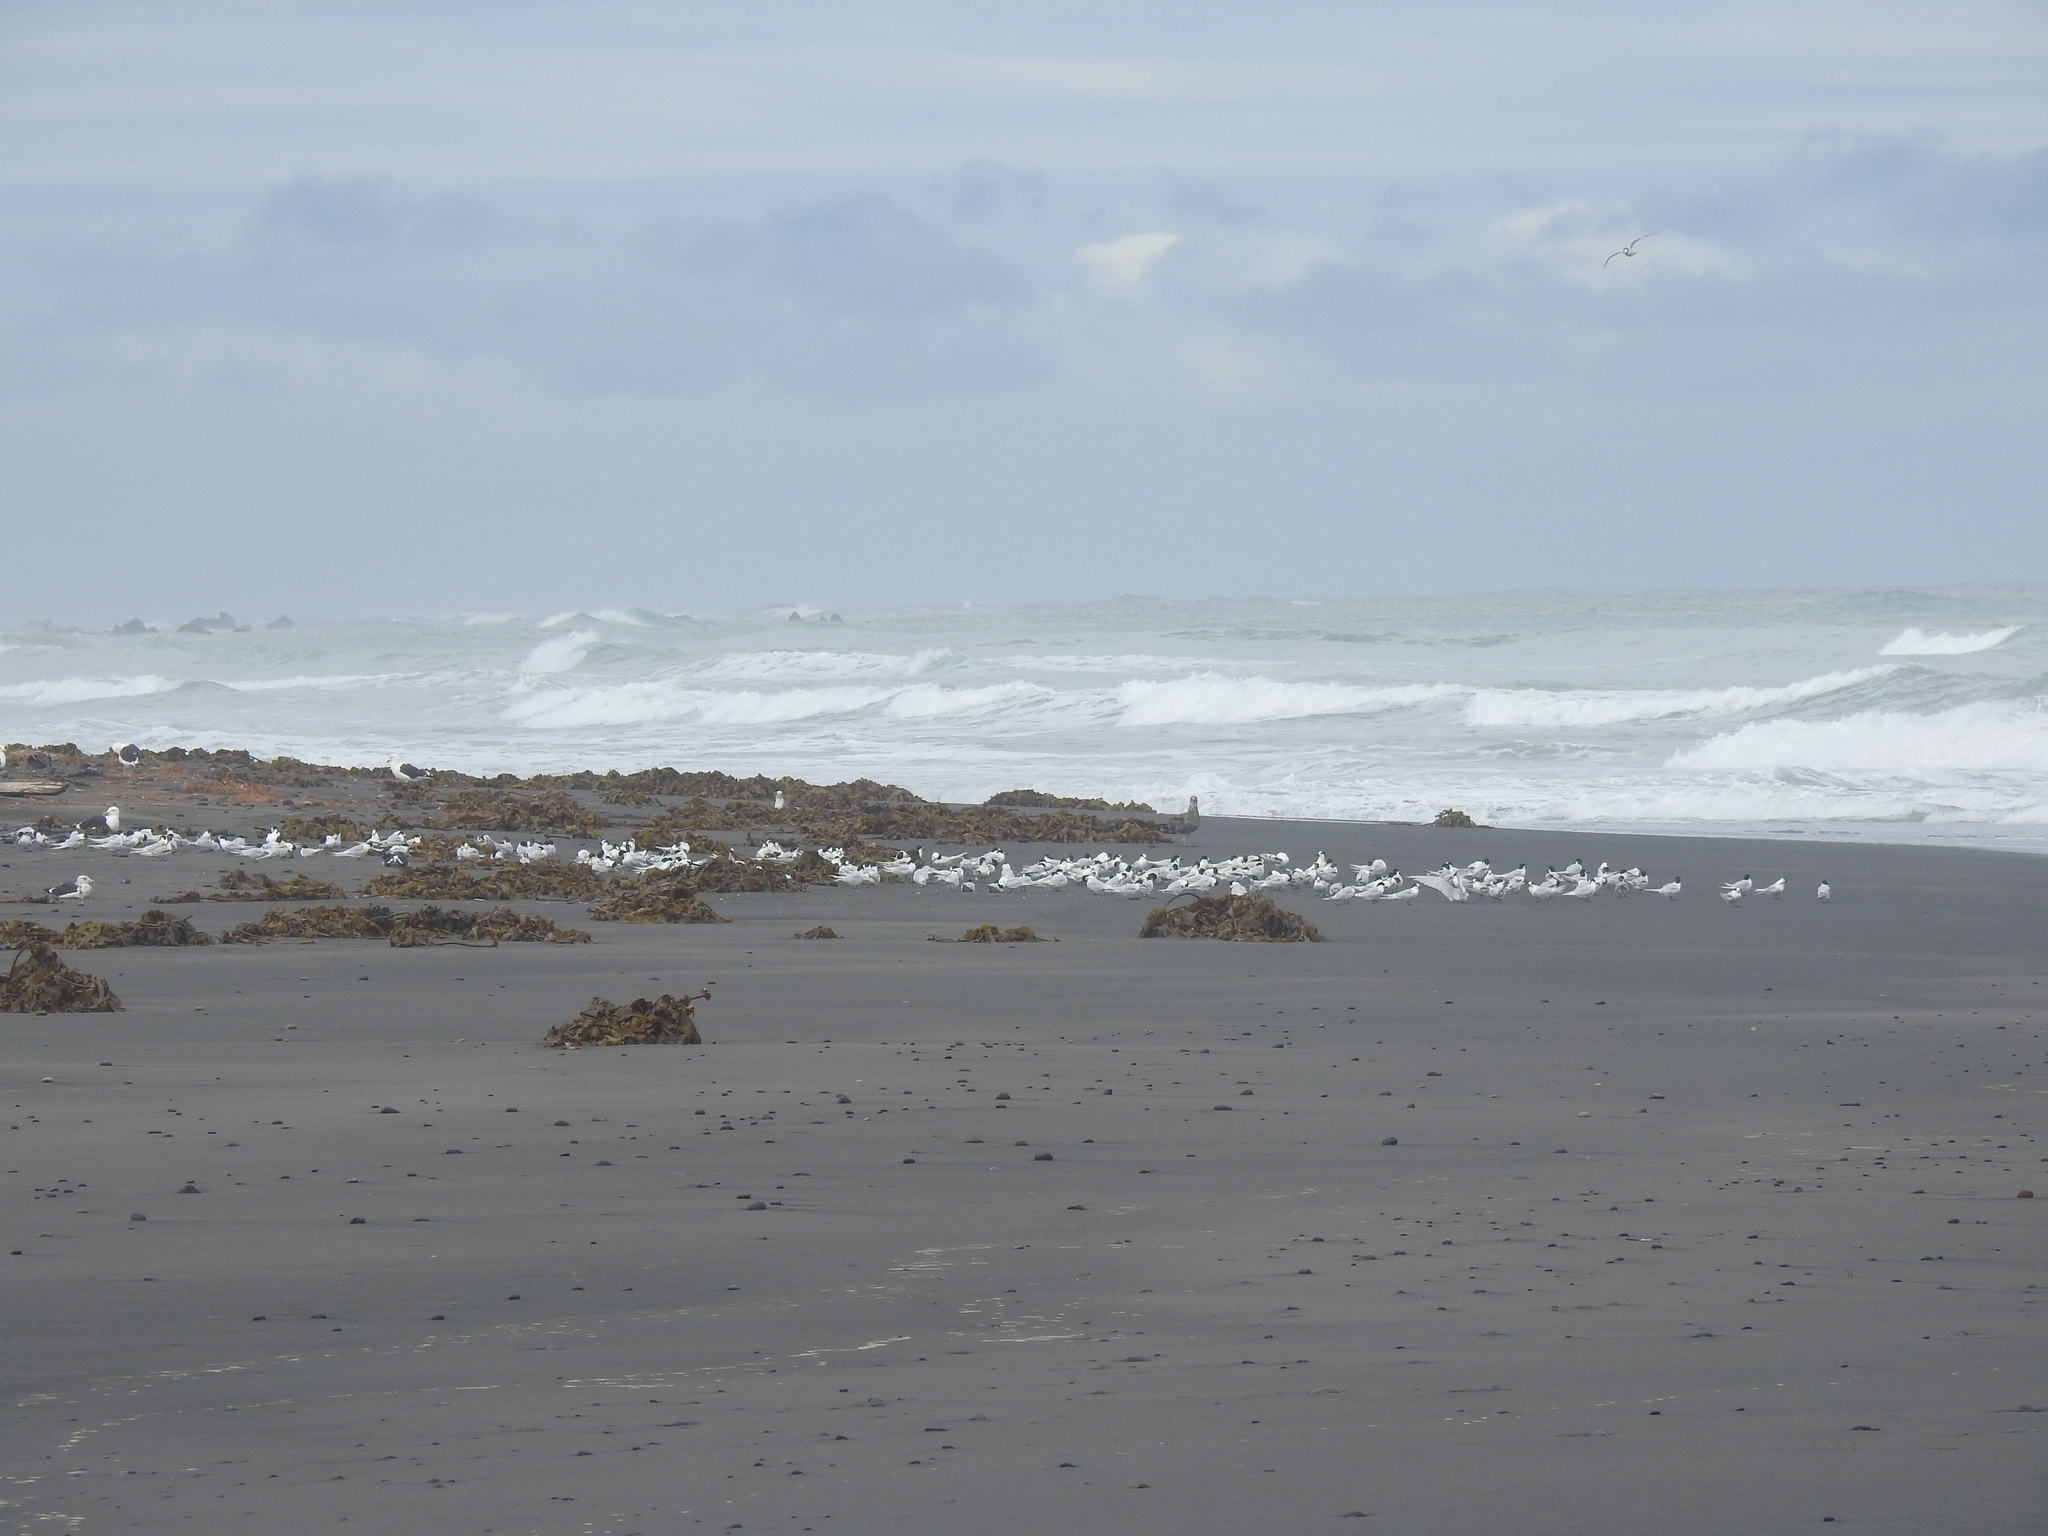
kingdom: Animalia
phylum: Chordata
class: Aves
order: Charadriiformes
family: Laridae
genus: Sterna
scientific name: Sterna striata
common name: White-fronted tern
